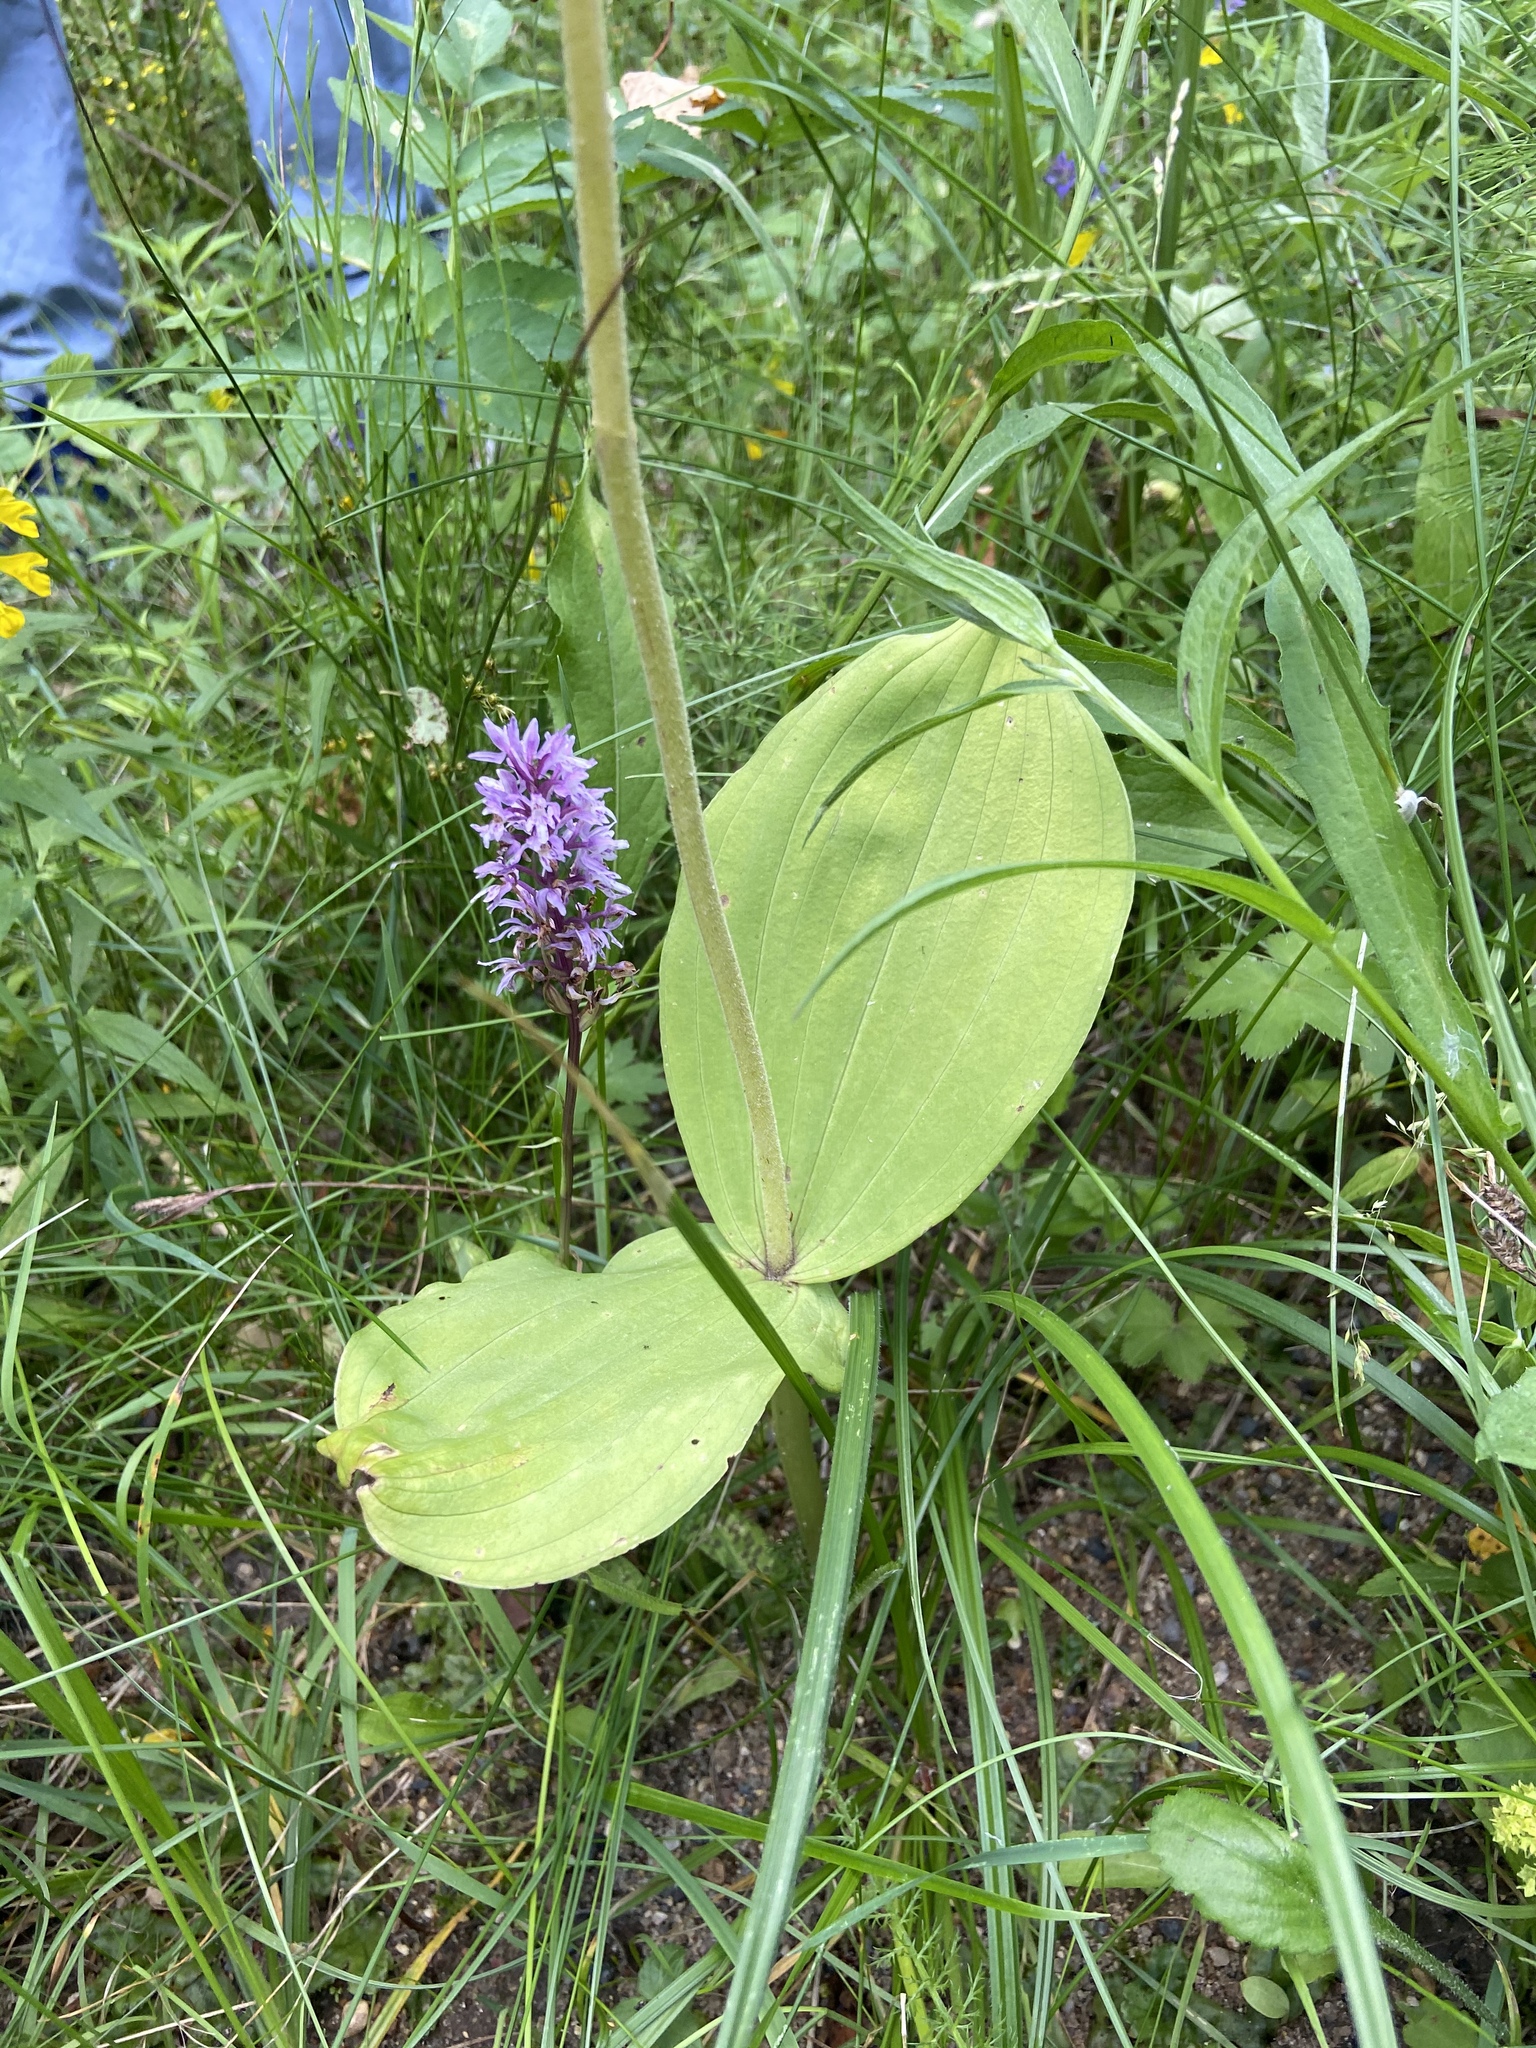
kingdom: Plantae
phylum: Tracheophyta
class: Liliopsida
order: Asparagales
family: Orchidaceae
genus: Neottia
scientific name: Neottia ovata
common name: Common twayblade
